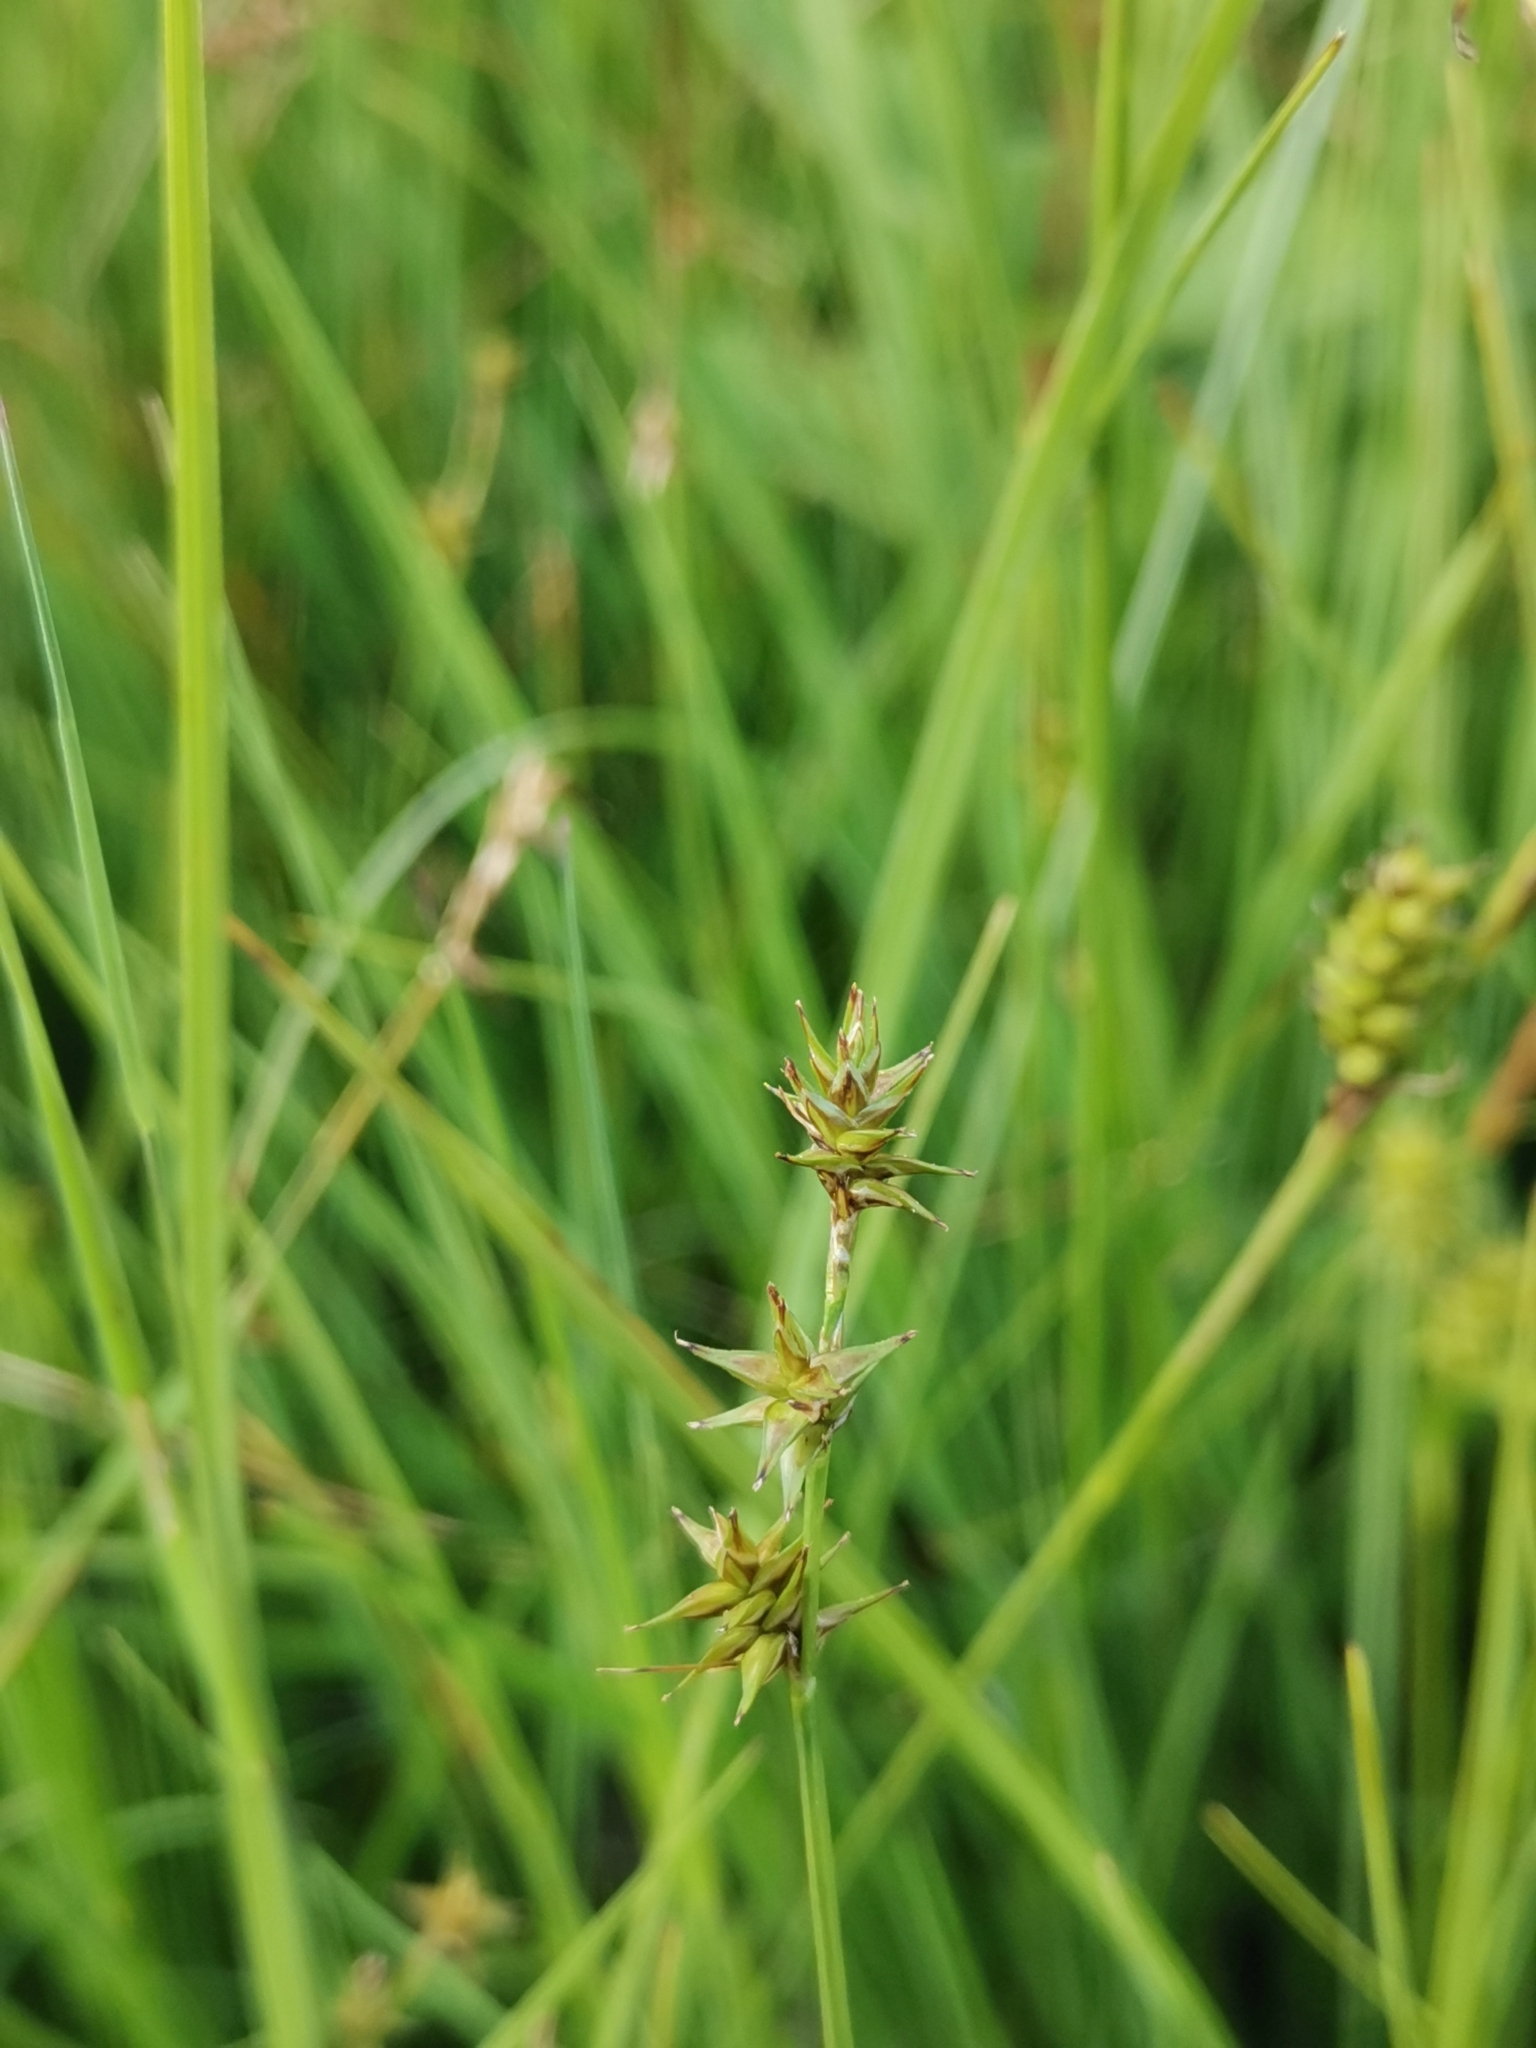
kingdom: Plantae
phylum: Tracheophyta
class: Liliopsida
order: Poales
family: Cyperaceae
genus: Carex
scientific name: Carex echinata
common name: Star sedge
